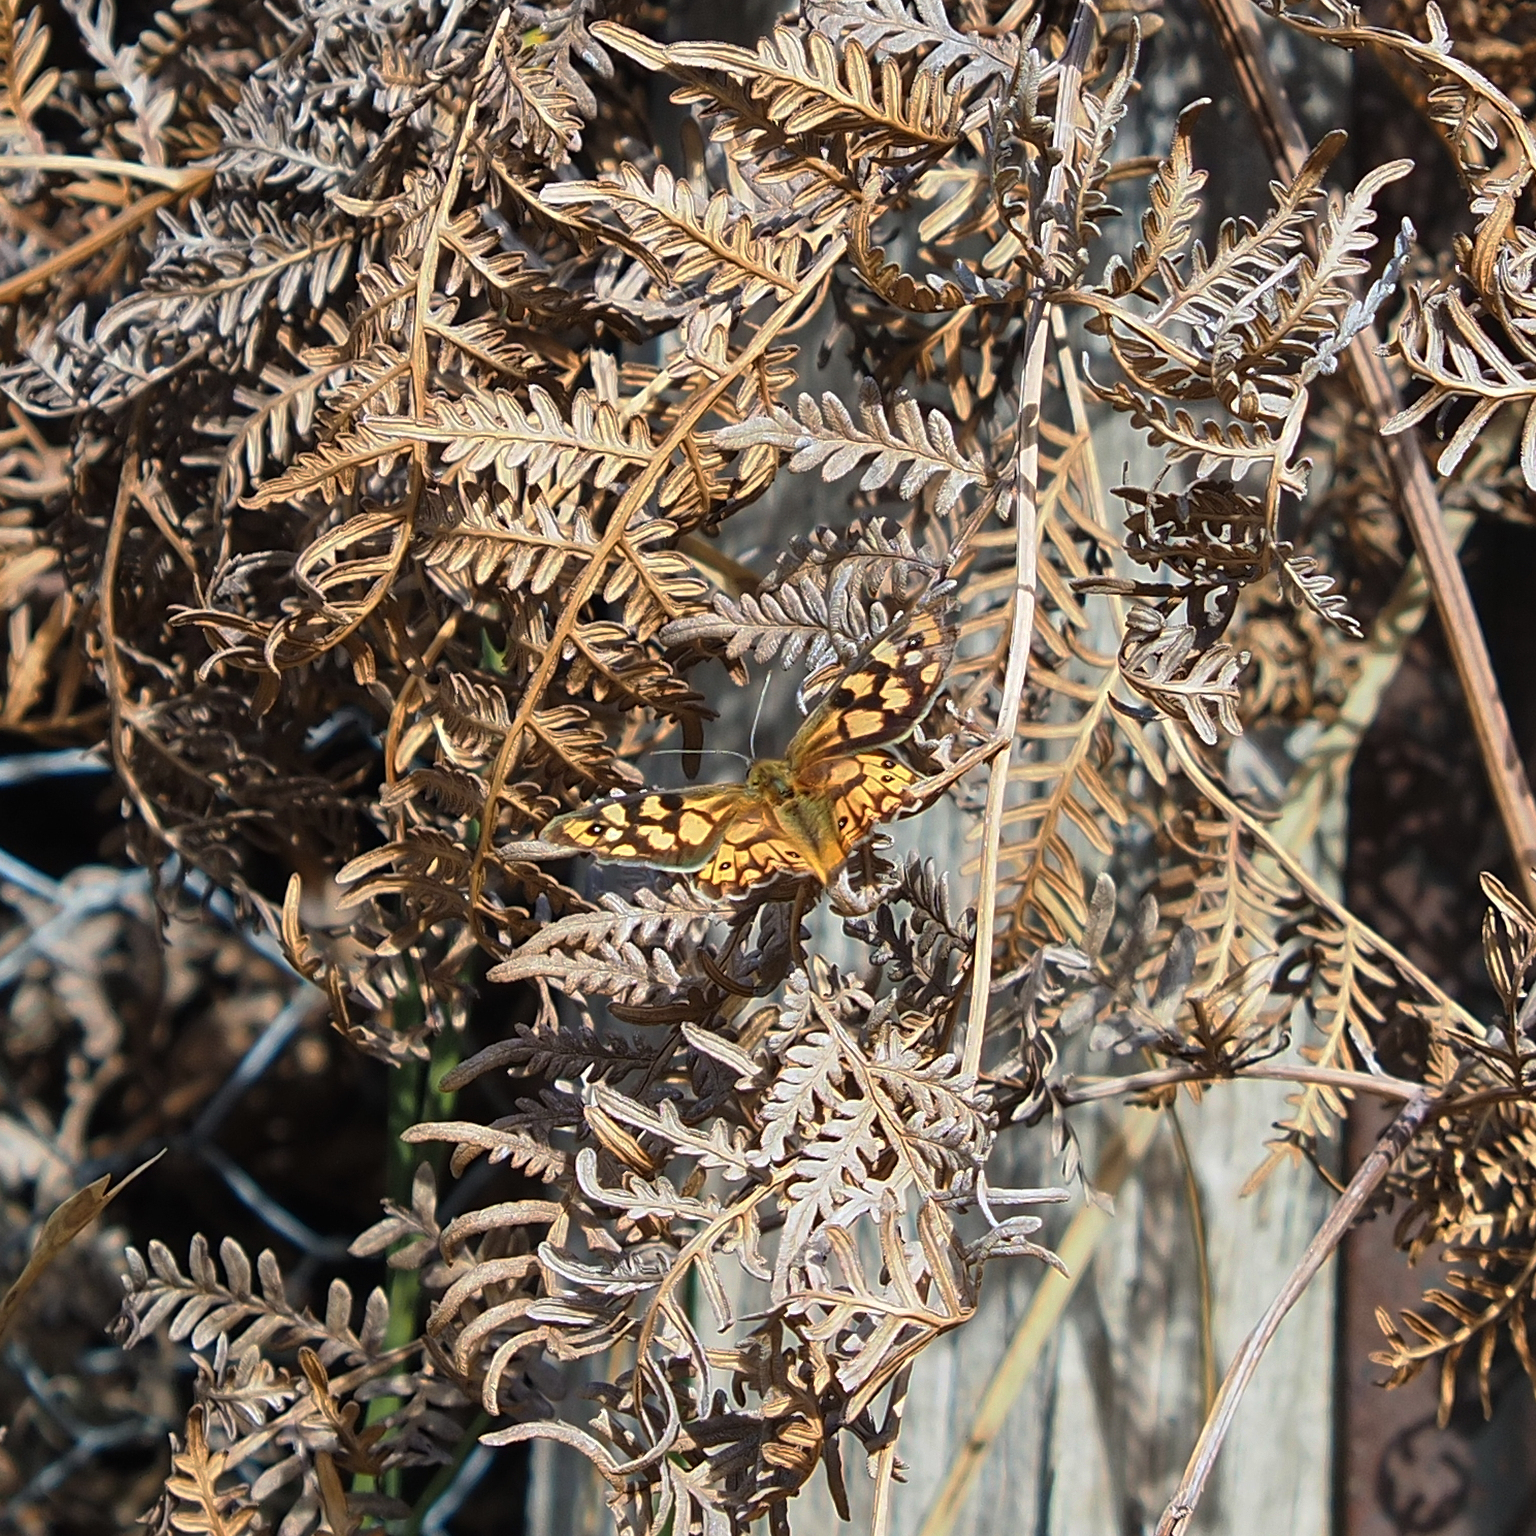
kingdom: Animalia
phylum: Arthropoda
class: Insecta
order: Lepidoptera
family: Nymphalidae
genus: Heteronympha
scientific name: Heteronympha penelope
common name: Shouldered brown
